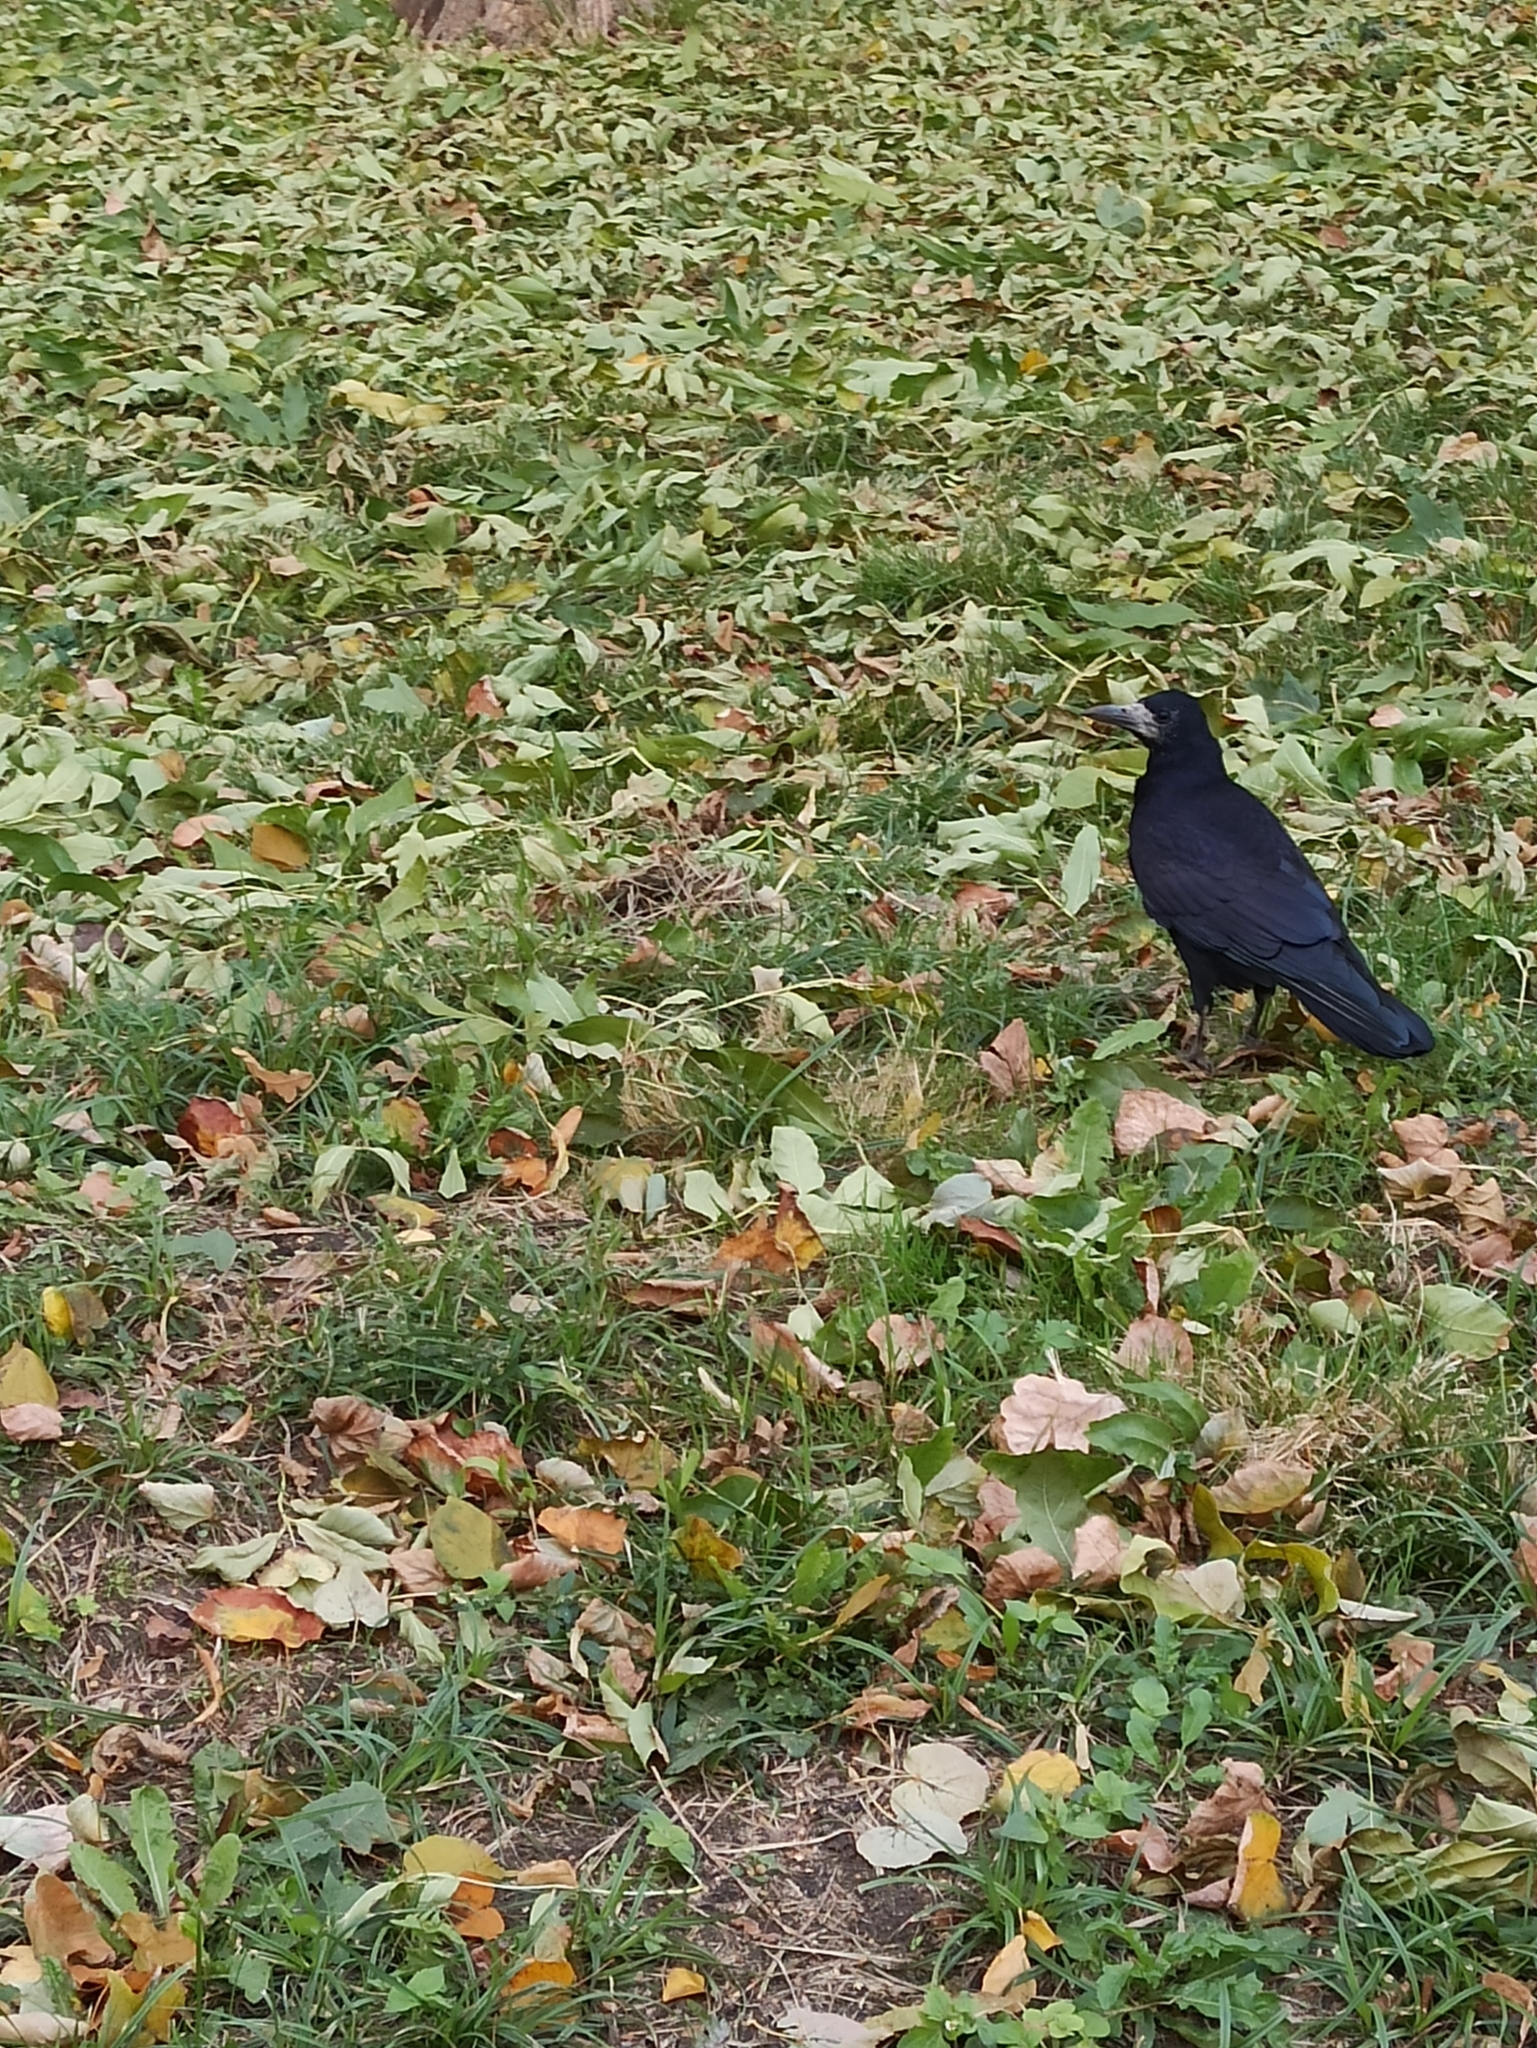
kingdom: Animalia
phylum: Chordata
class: Aves
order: Passeriformes
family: Corvidae
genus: Corvus
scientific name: Corvus frugilegus
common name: Rook
